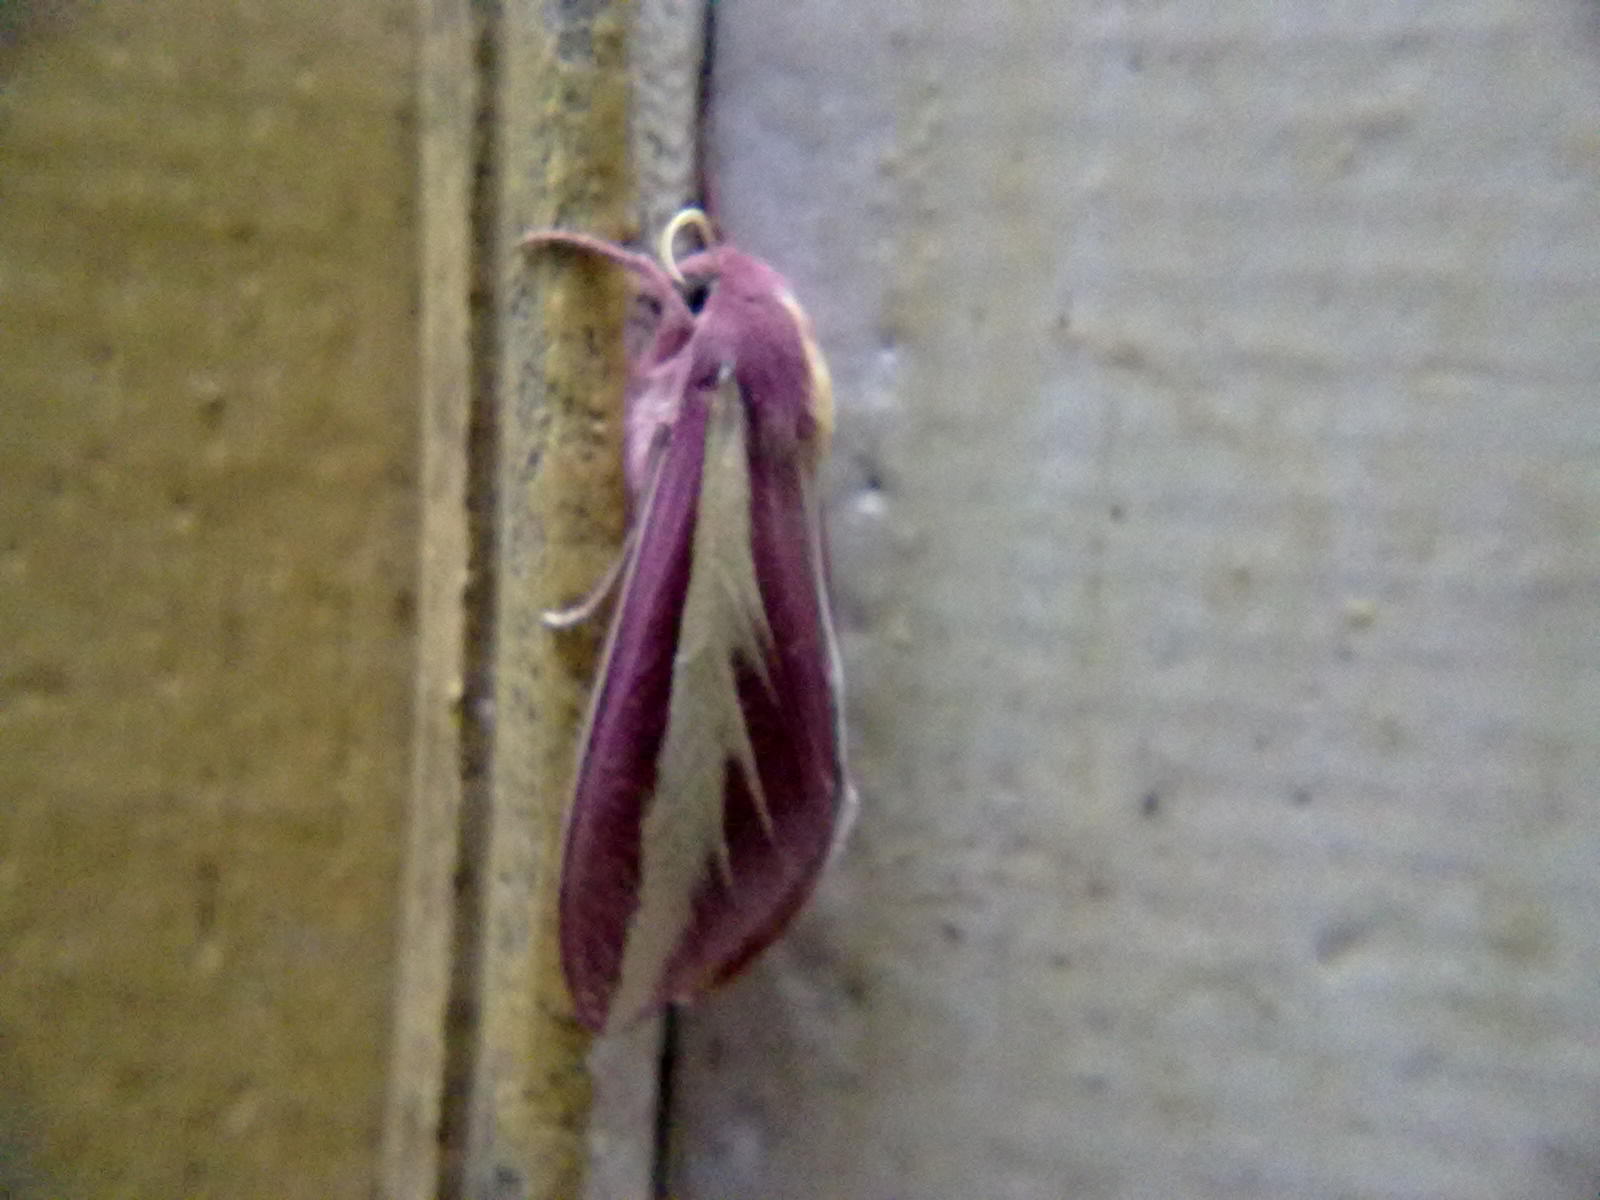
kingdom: Animalia
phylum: Arthropoda
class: Insecta
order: Lepidoptera
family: Sphingidae
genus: Leucophlebia
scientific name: Leucophlebia emittens
